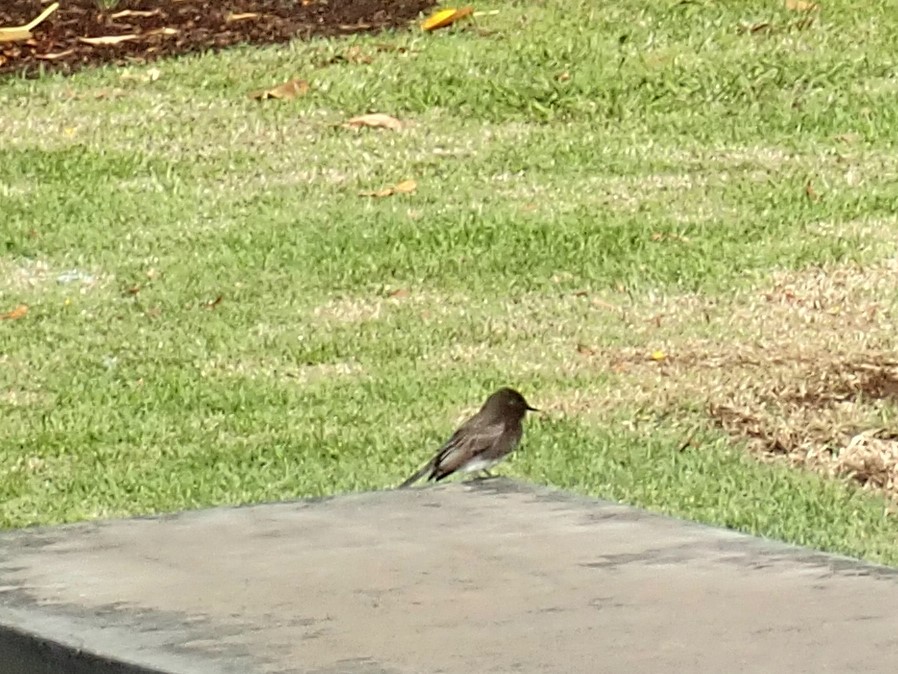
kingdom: Animalia
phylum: Chordata
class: Aves
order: Passeriformes
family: Tyrannidae
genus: Sayornis
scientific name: Sayornis nigricans
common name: Black phoebe
